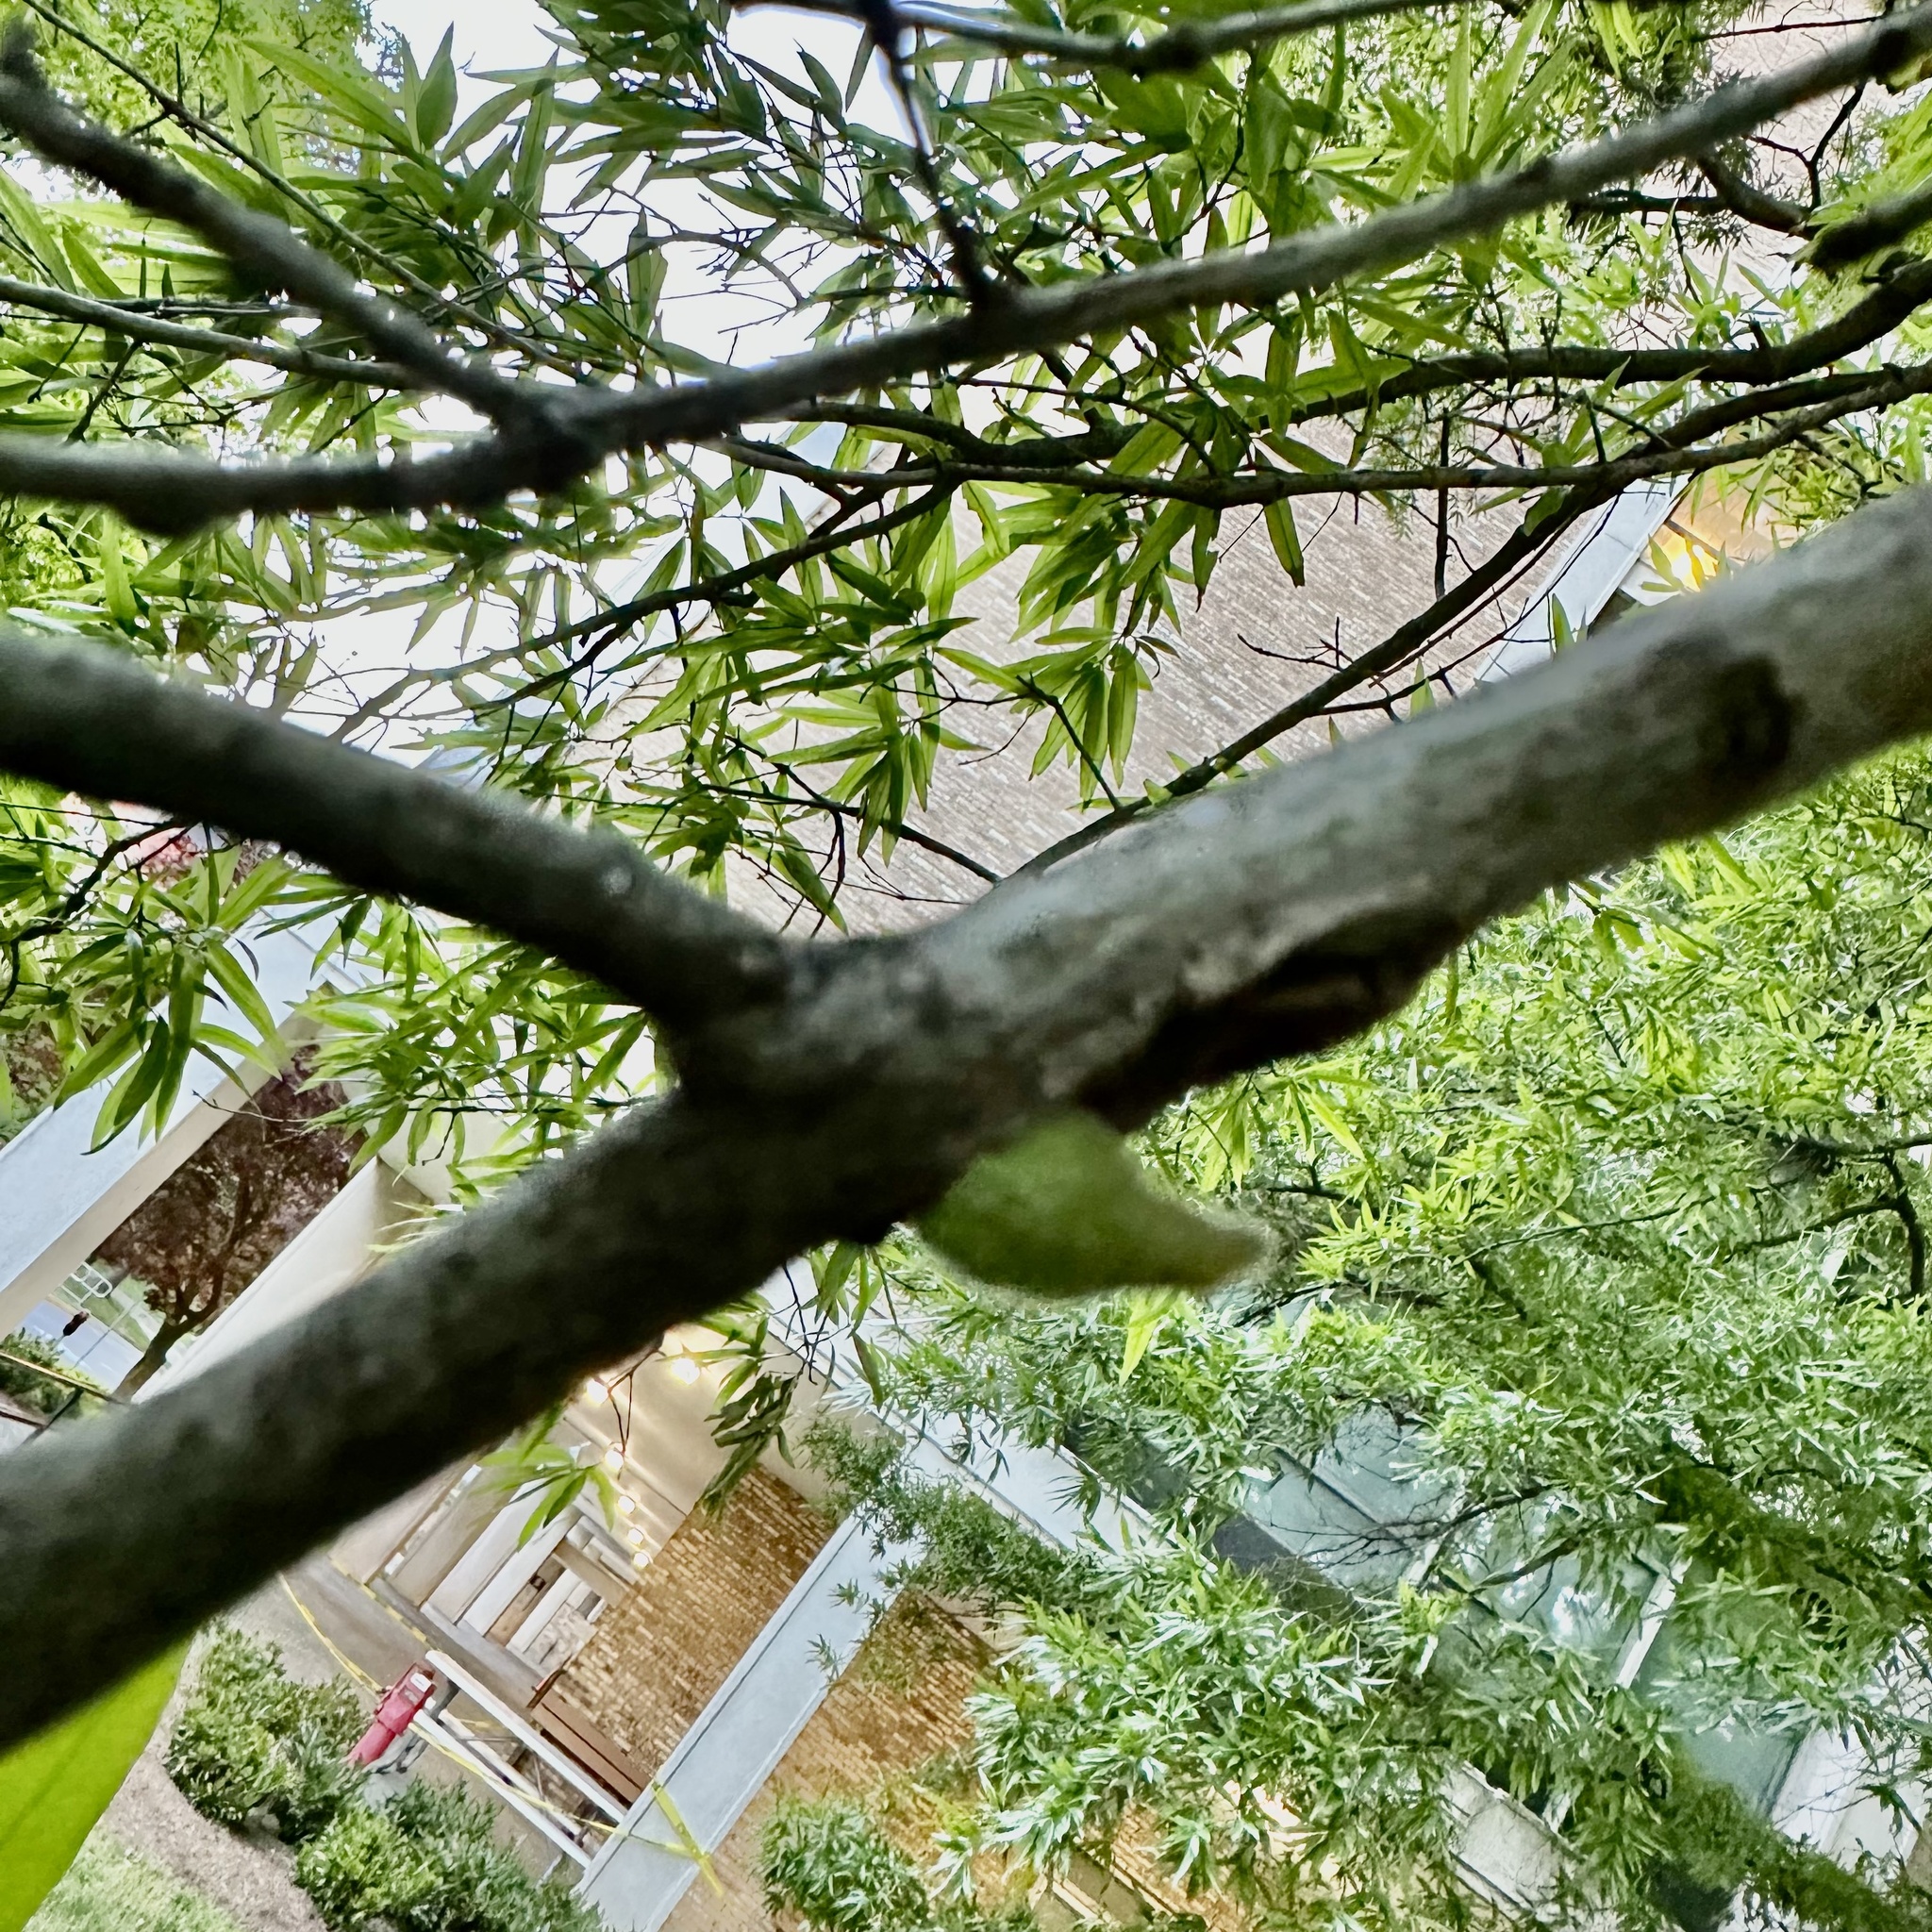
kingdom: Animalia
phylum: Arthropoda
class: Insecta
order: Hymenoptera
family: Cynipidae
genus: Callirhytis
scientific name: Callirhytis
